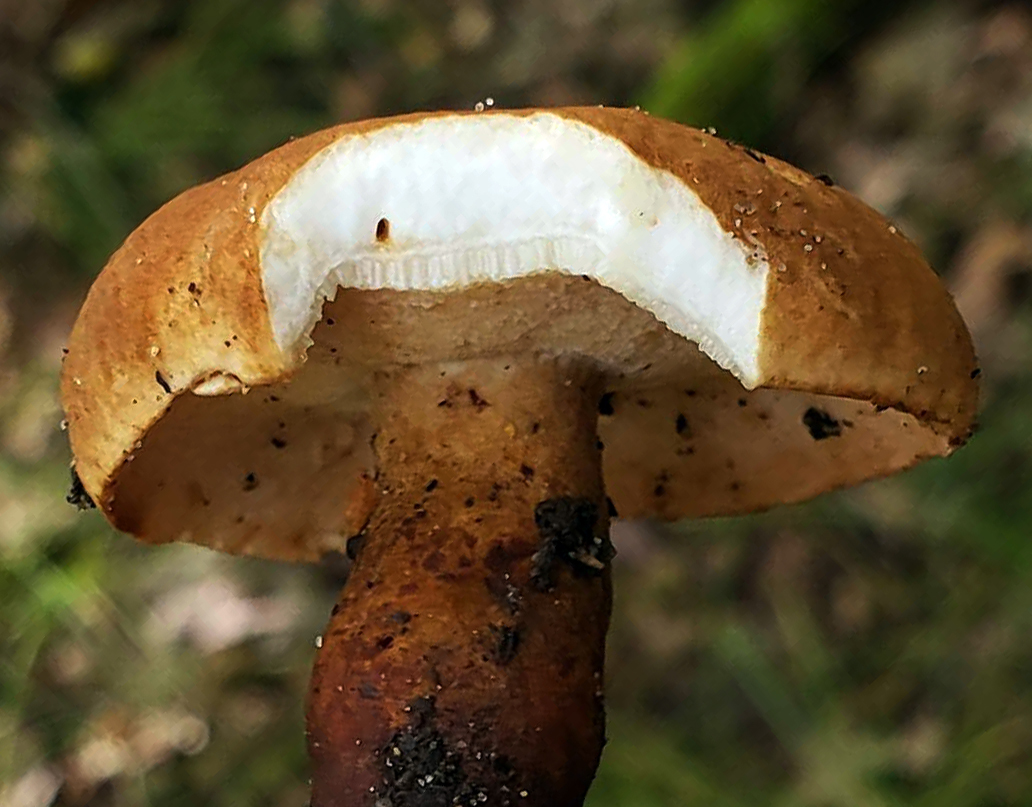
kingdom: Fungi
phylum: Basidiomycota
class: Agaricomycetes
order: Boletales
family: Gyroporaceae
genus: Gyroporus
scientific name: Gyroporus castaneus
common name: Chestnut bolete
